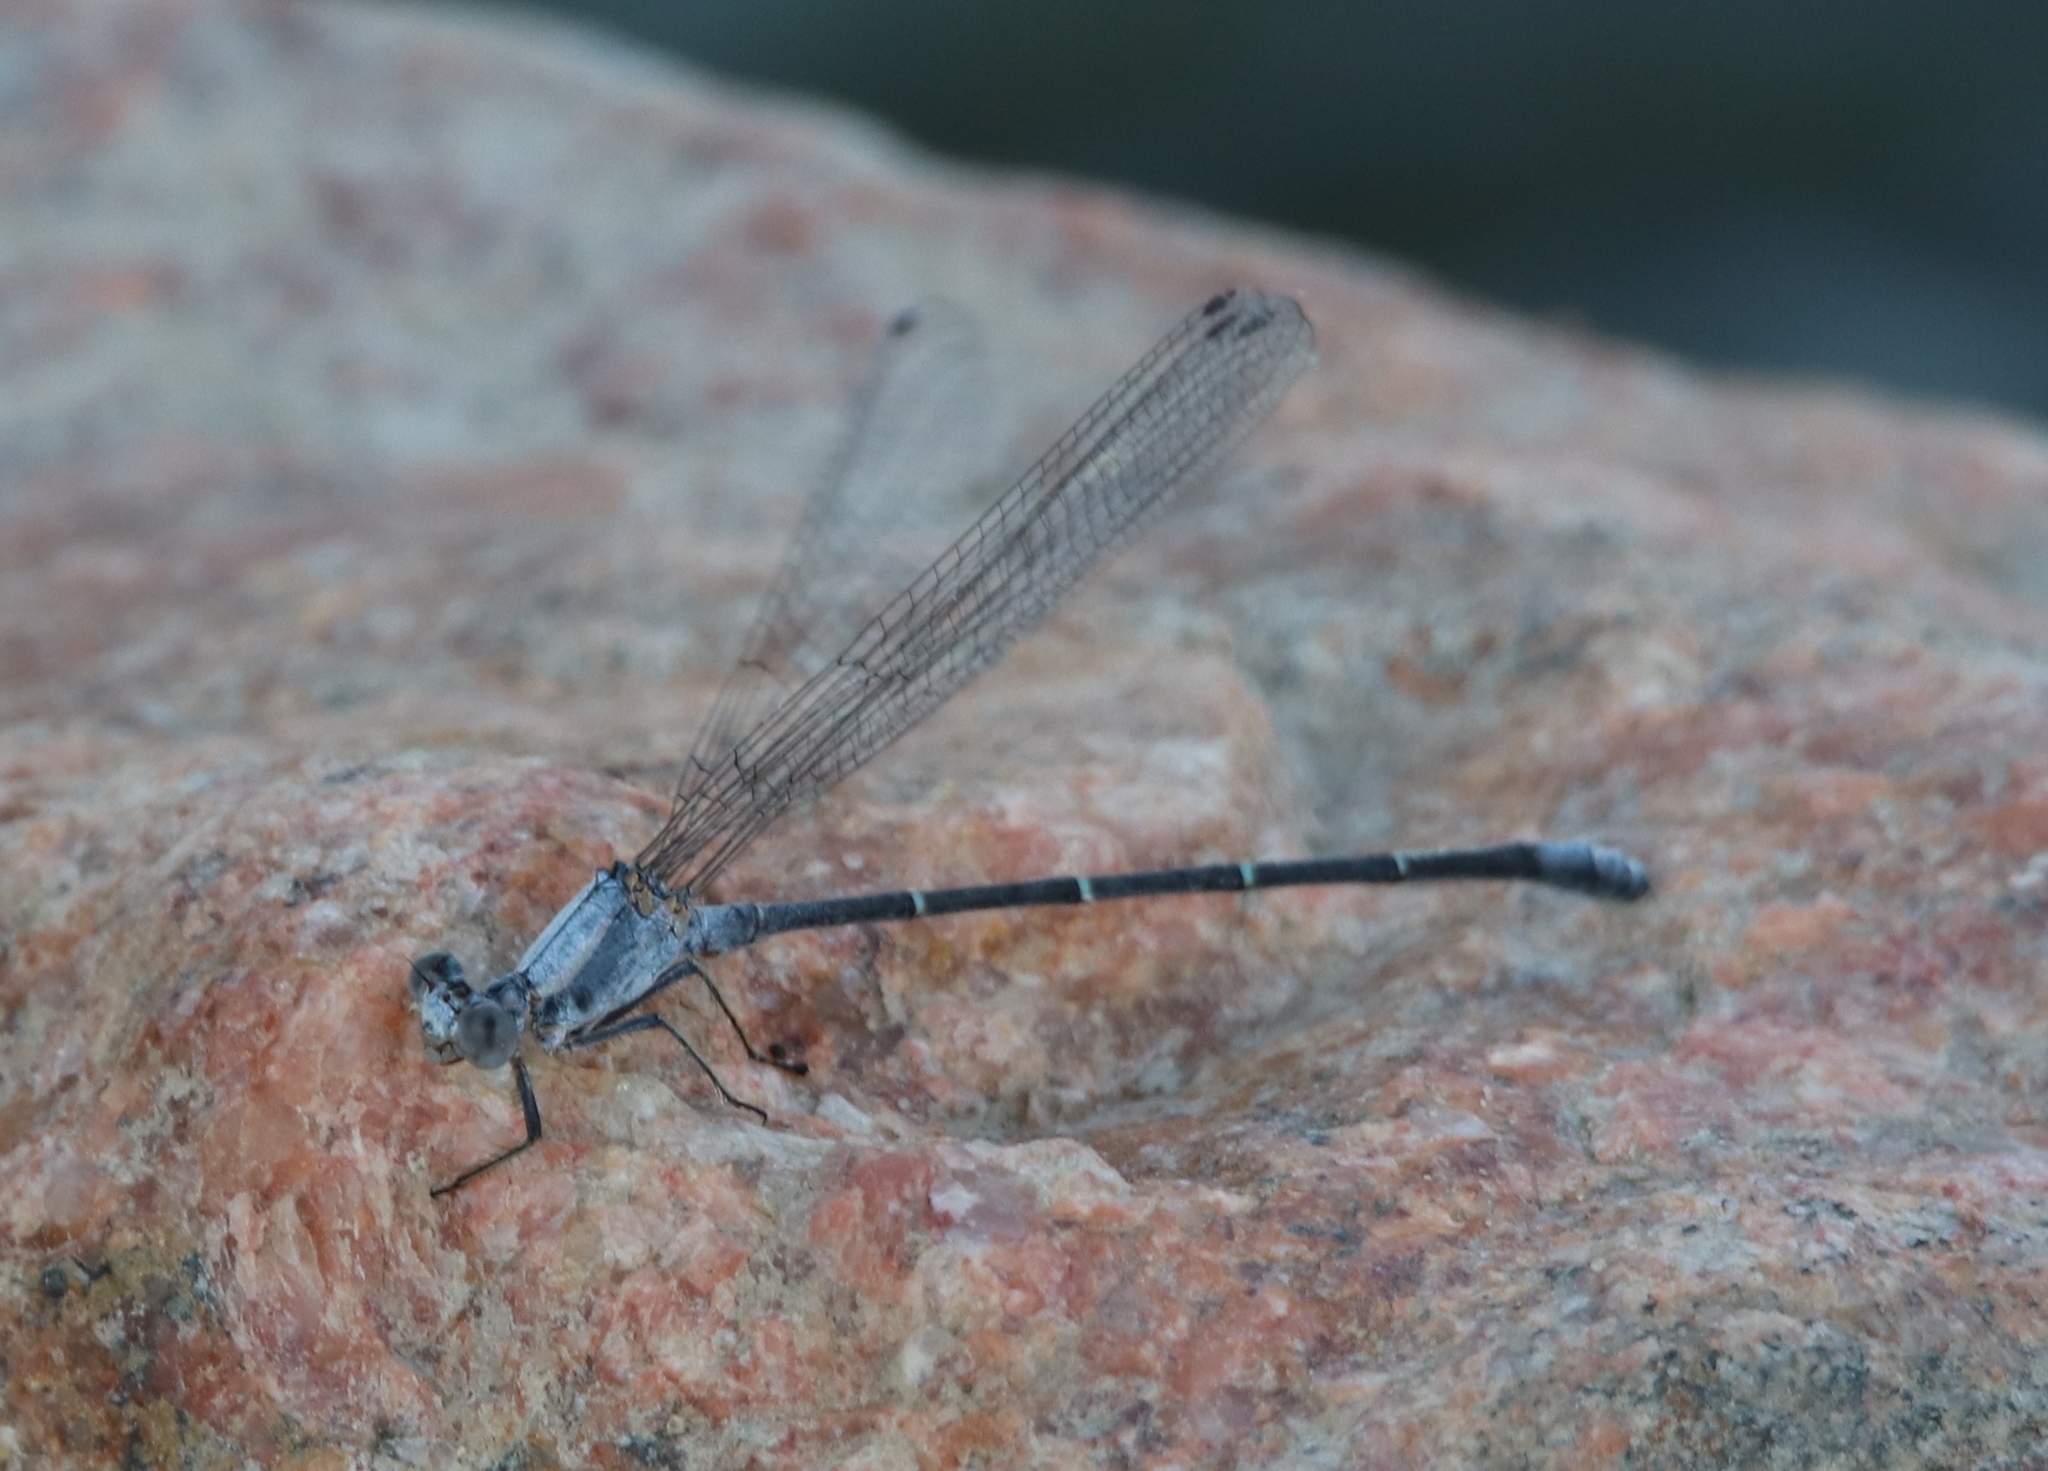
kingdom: Animalia
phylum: Arthropoda
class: Insecta
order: Odonata
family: Coenagrionidae
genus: Argia
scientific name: Argia moesta
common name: Powdered dancer
